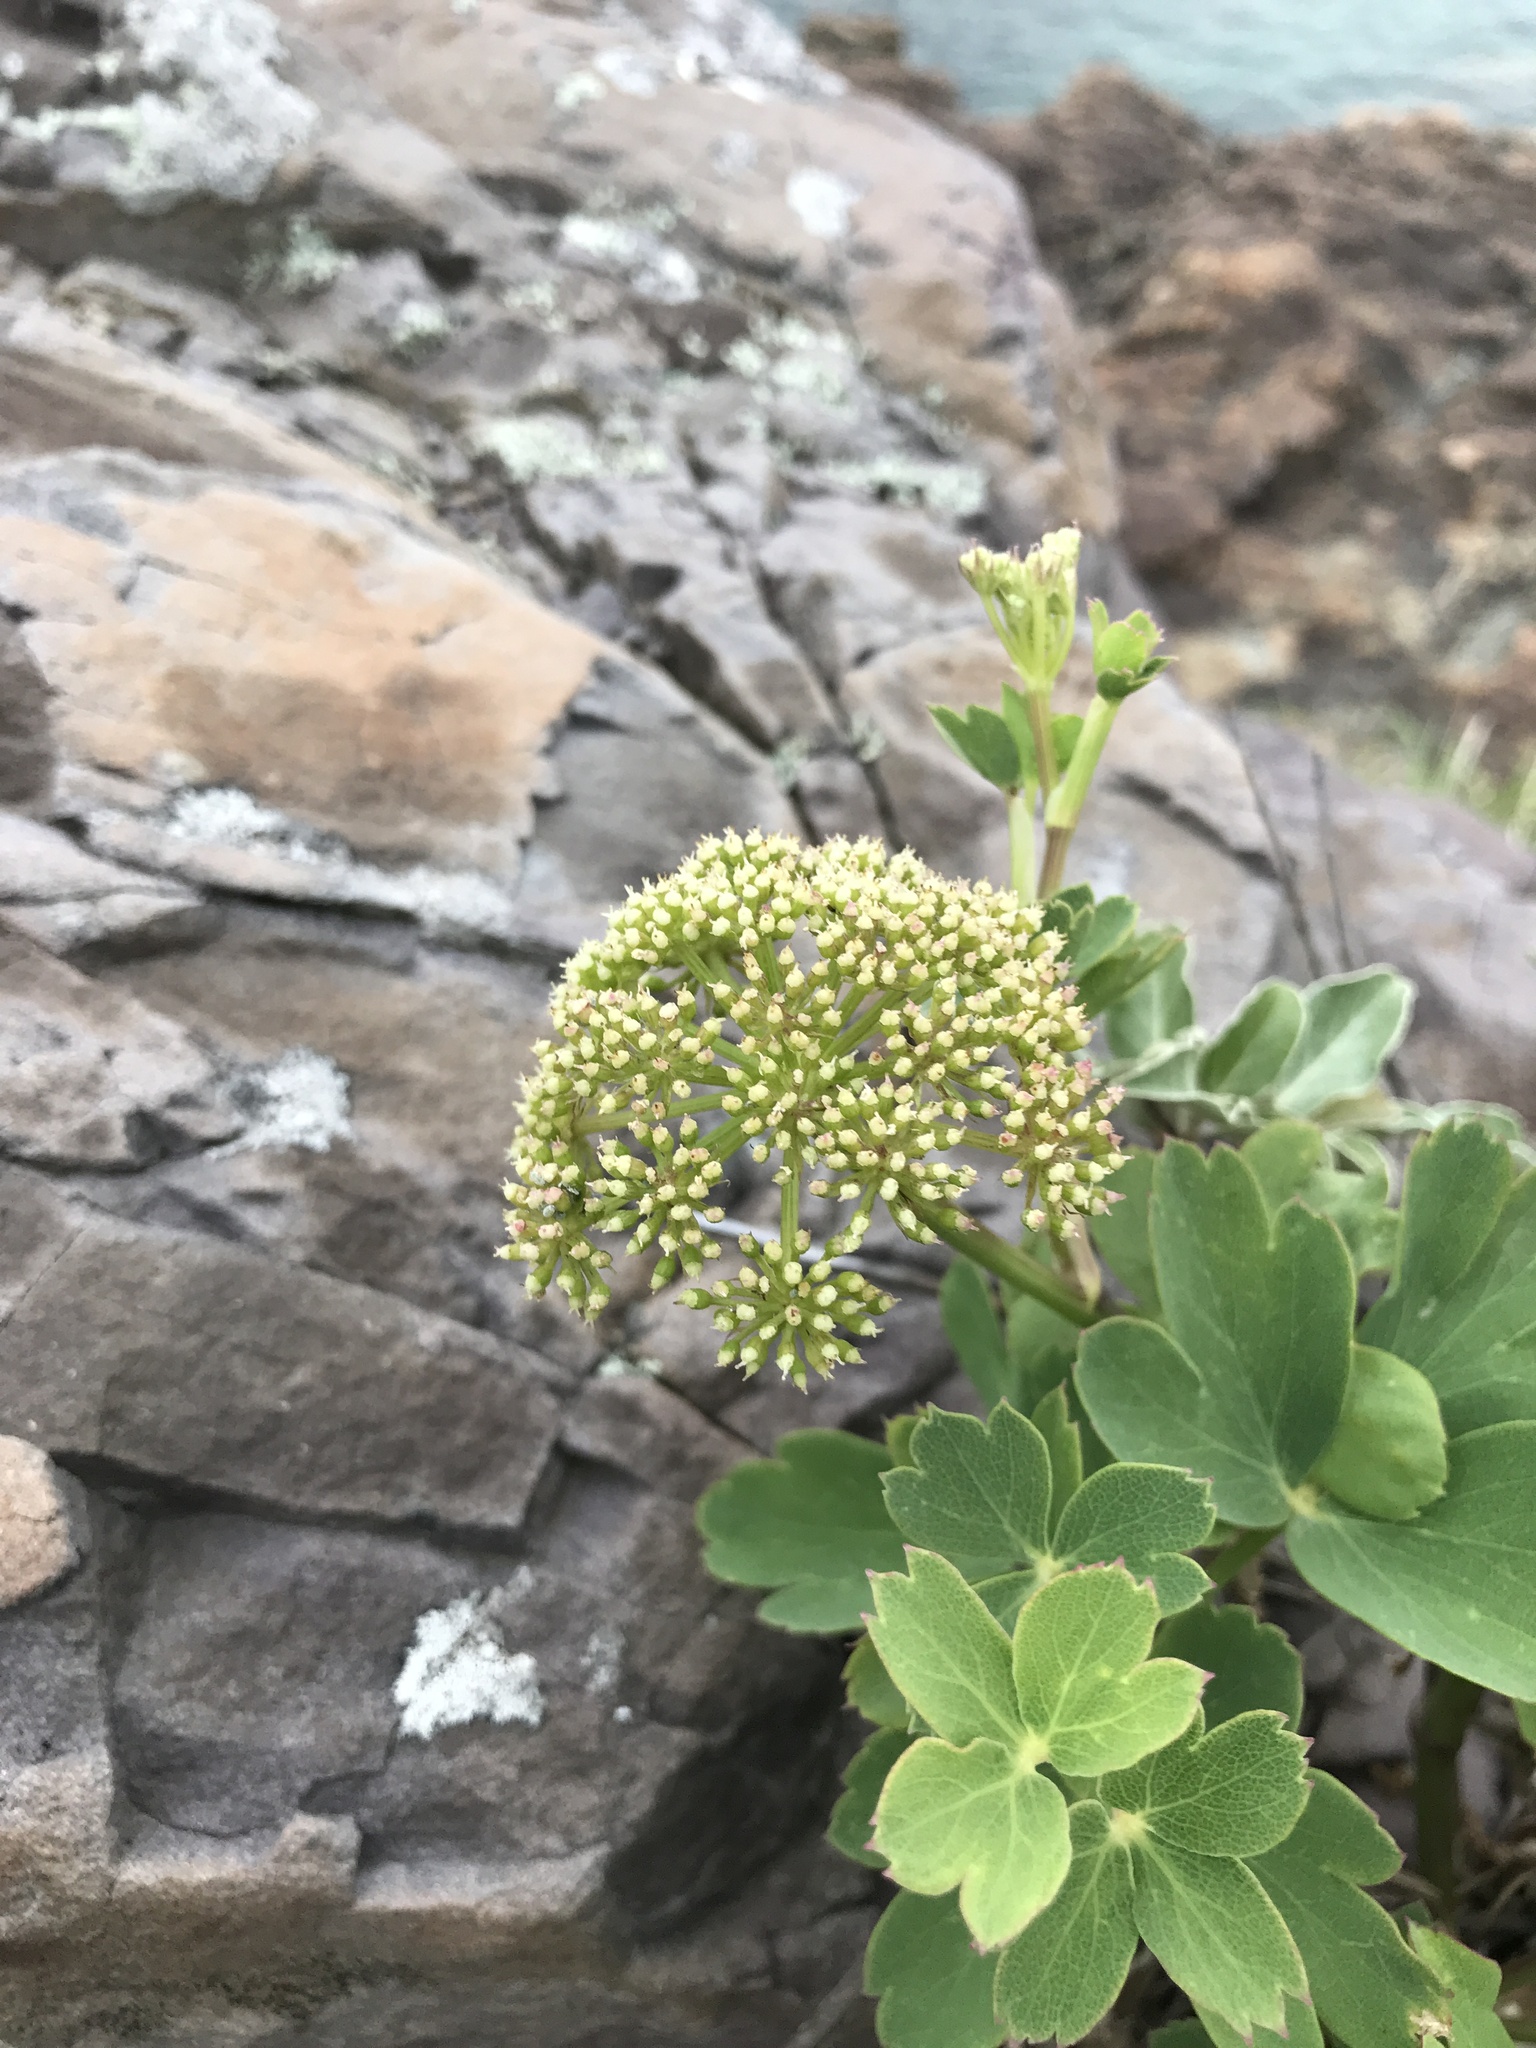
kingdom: Plantae
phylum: Tracheophyta
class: Magnoliopsida
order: Apiales
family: Apiaceae
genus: Peucedanum
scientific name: Peucedanum japonicum
